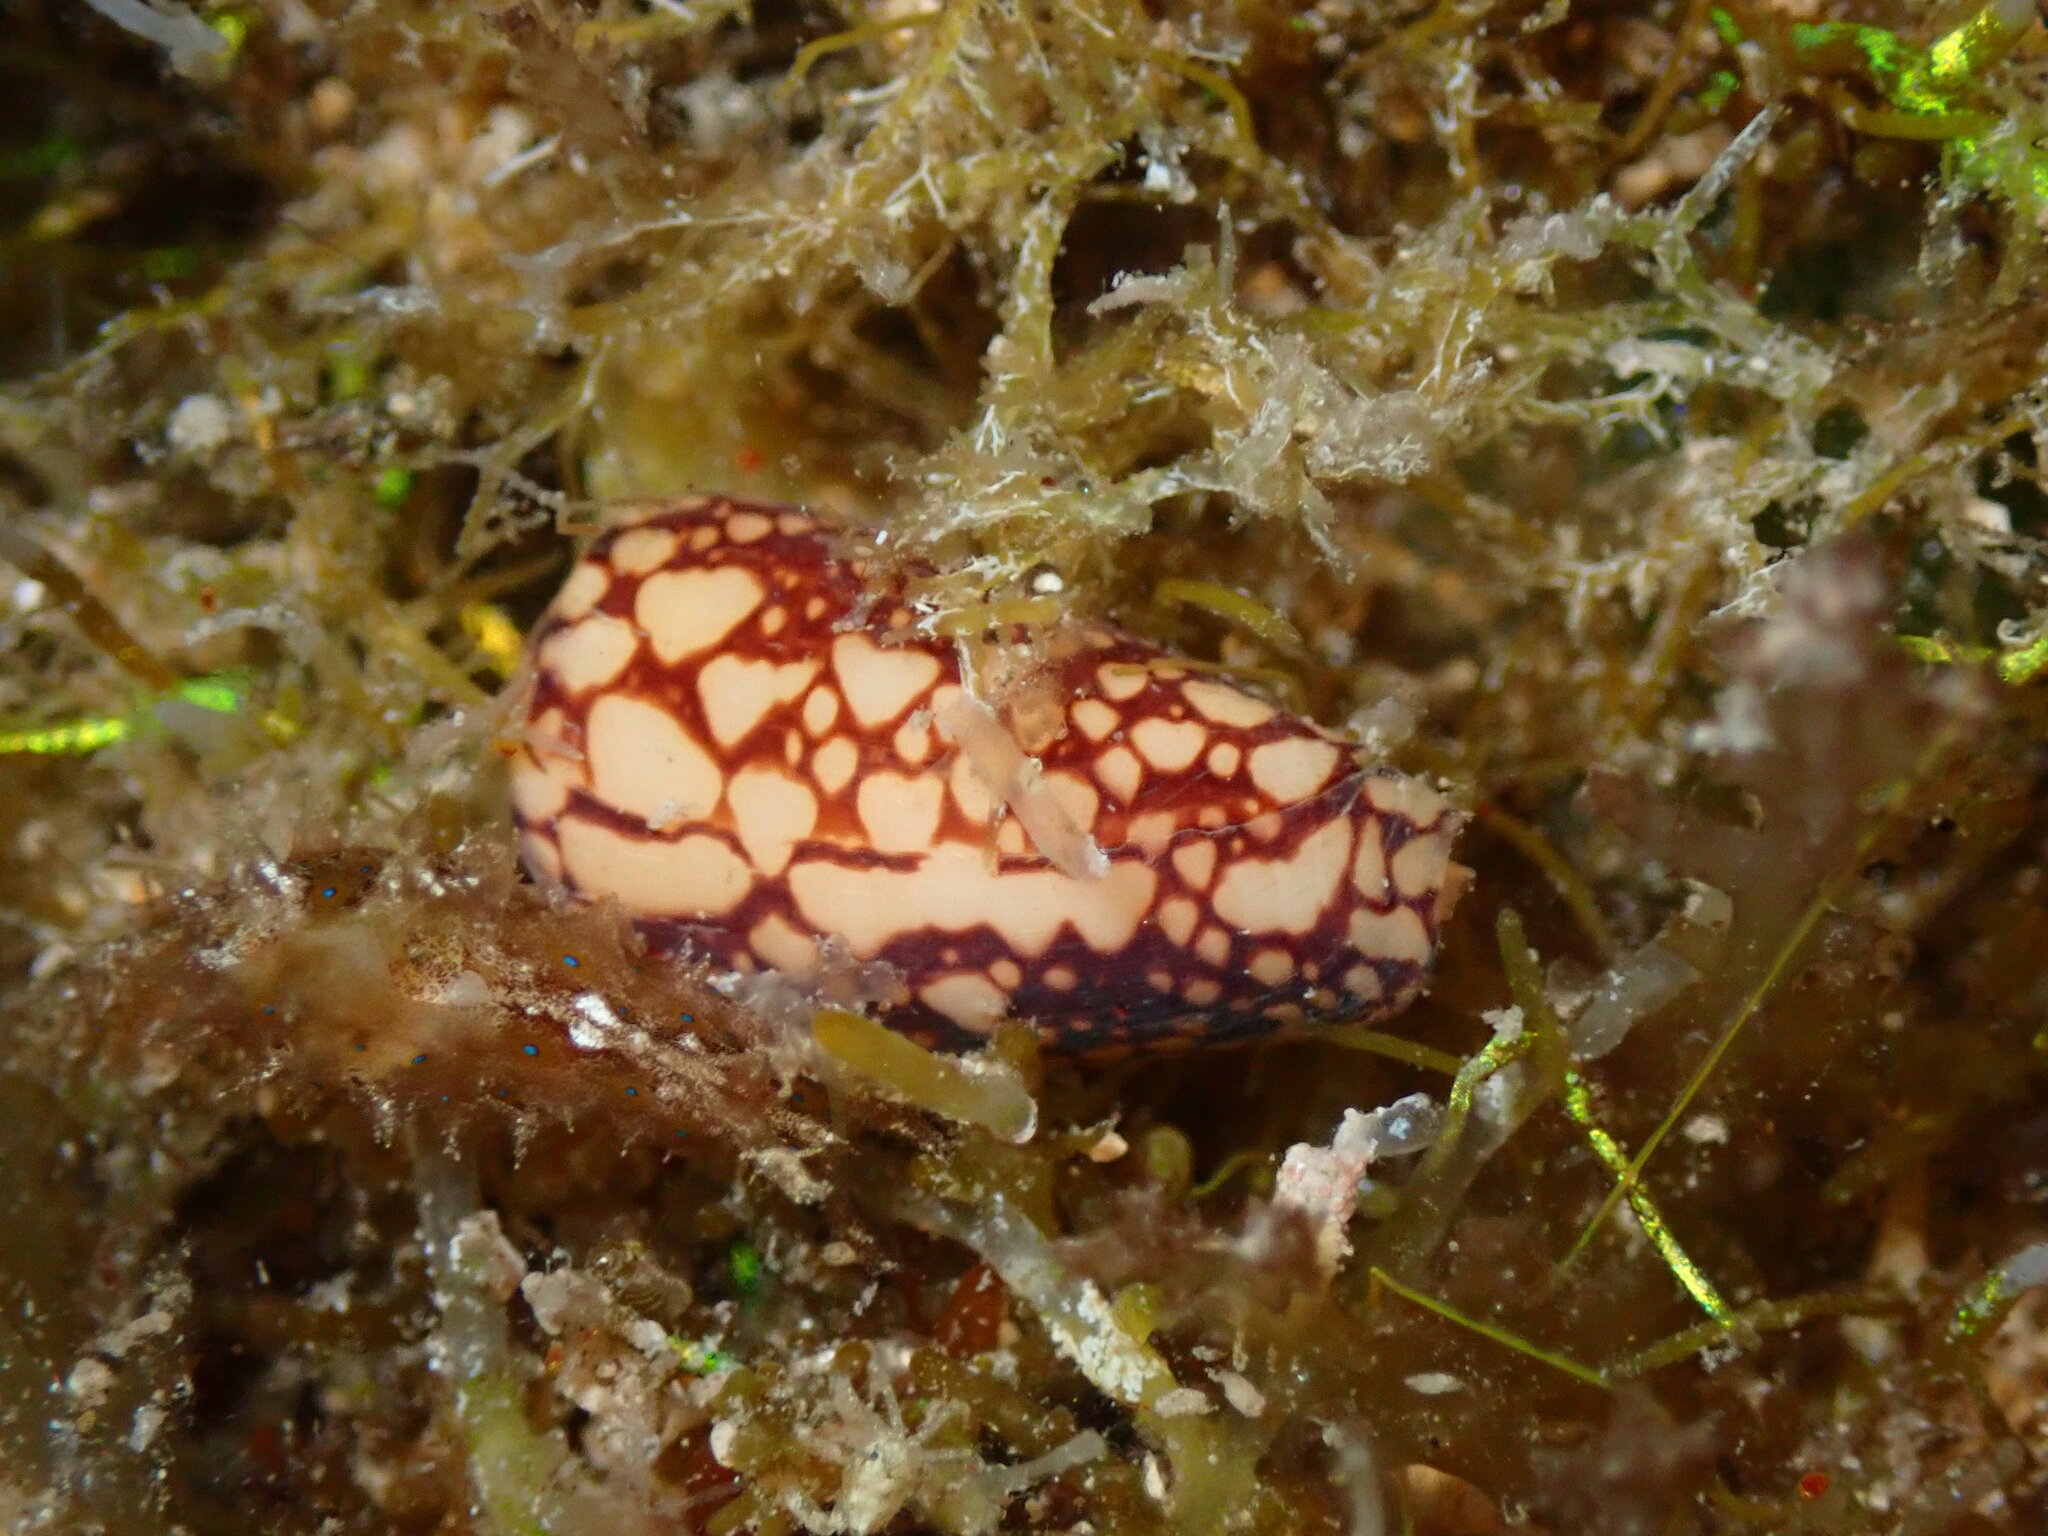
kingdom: Animalia
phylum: Mollusca
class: Gastropoda
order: Neogastropoda
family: Conidae
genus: Conus
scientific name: Conus purus
